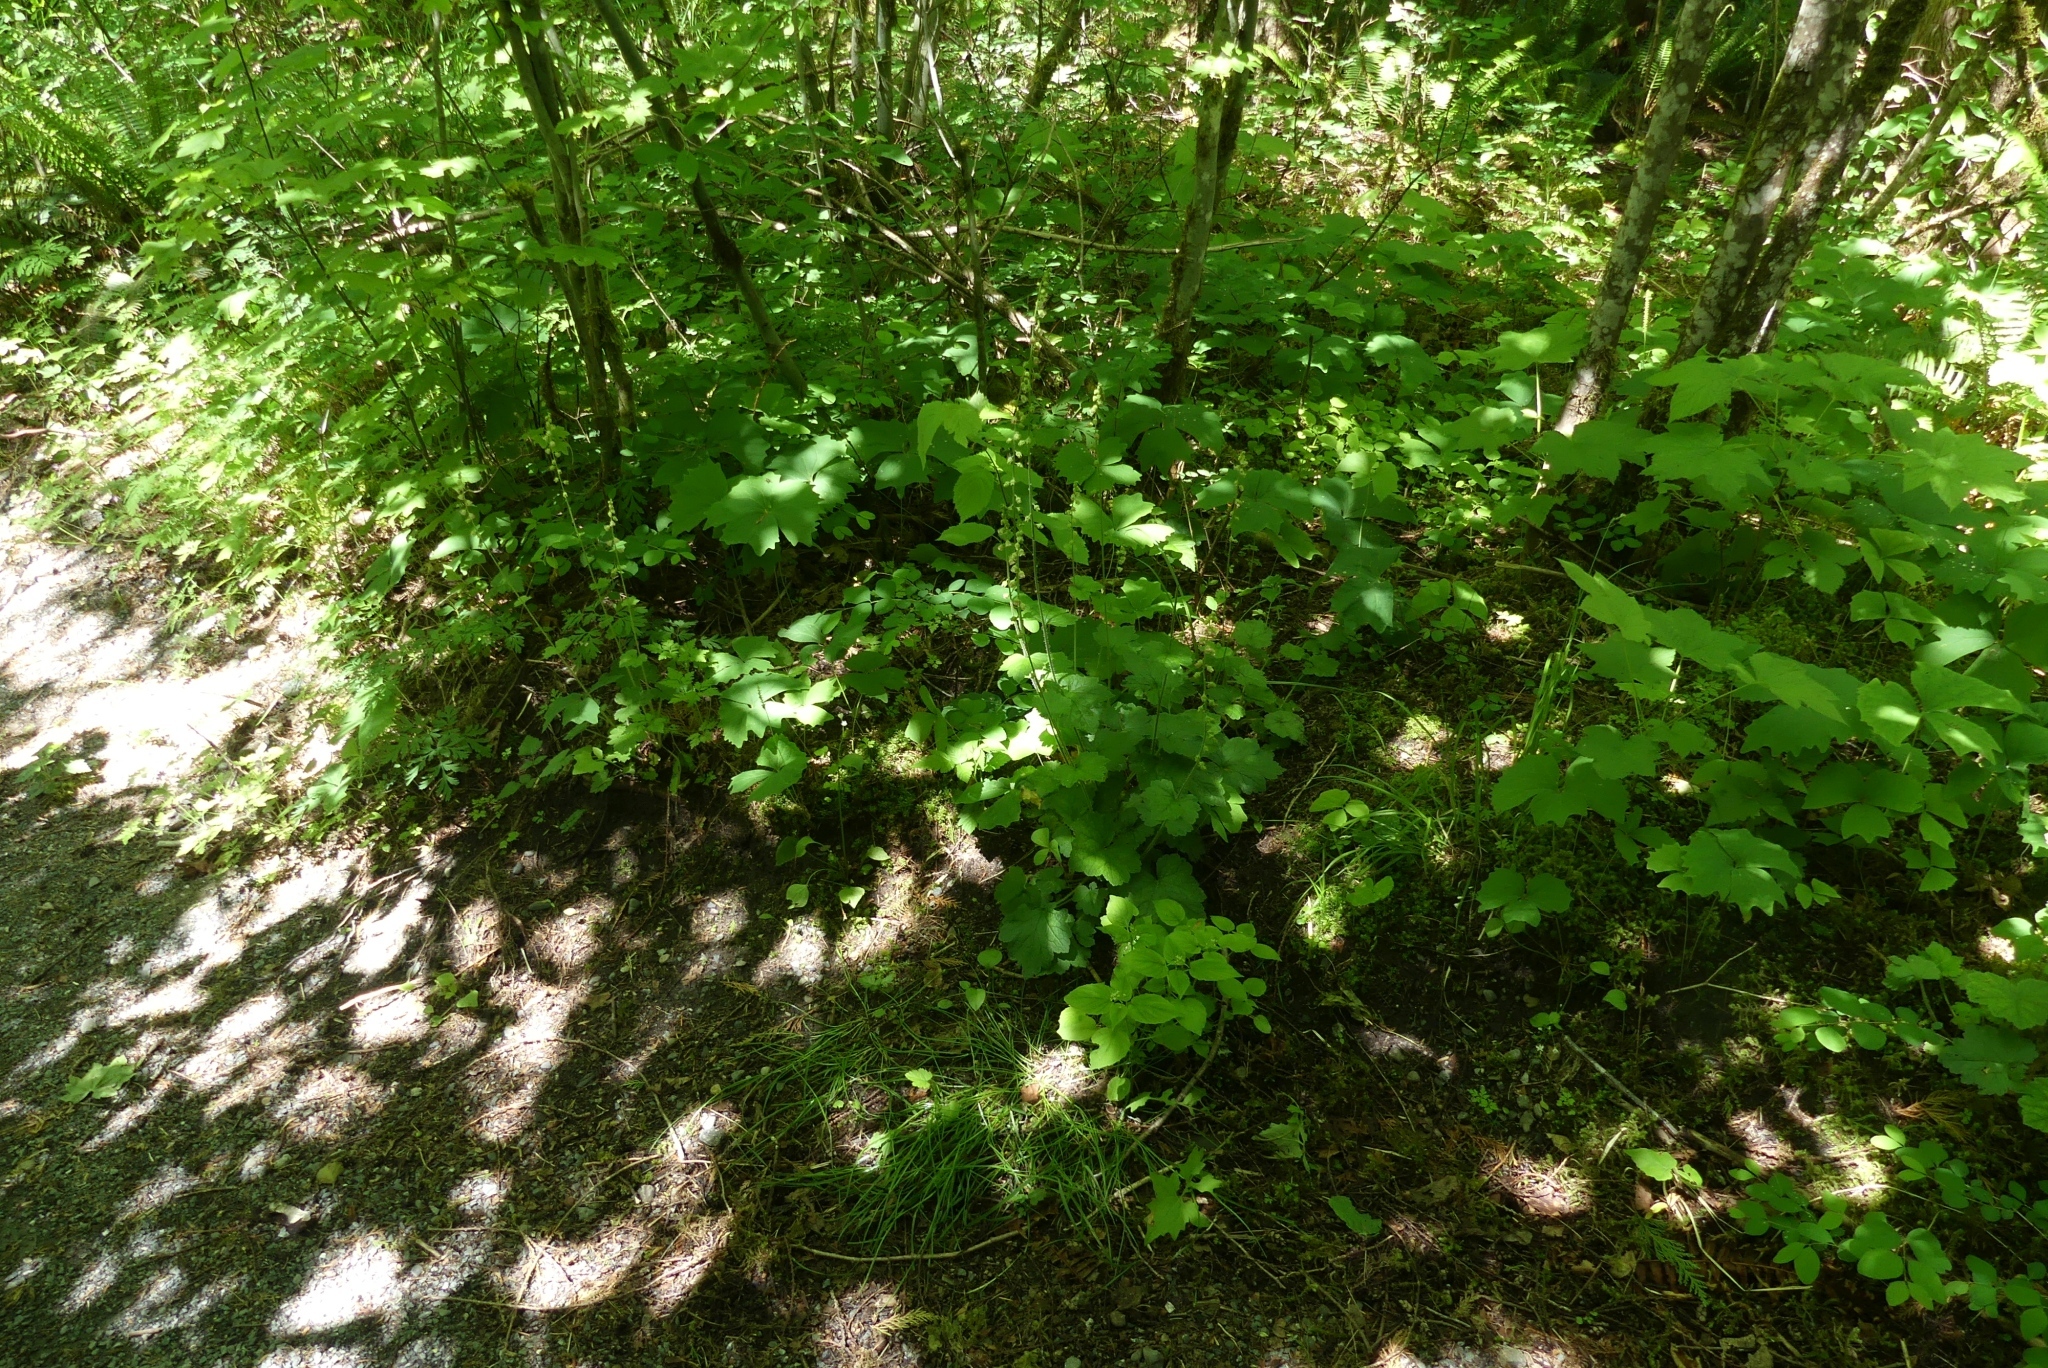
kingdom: Plantae
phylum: Tracheophyta
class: Magnoliopsida
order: Saxifragales
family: Saxifragaceae
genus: Tellima
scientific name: Tellima grandiflora
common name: Fringecups
